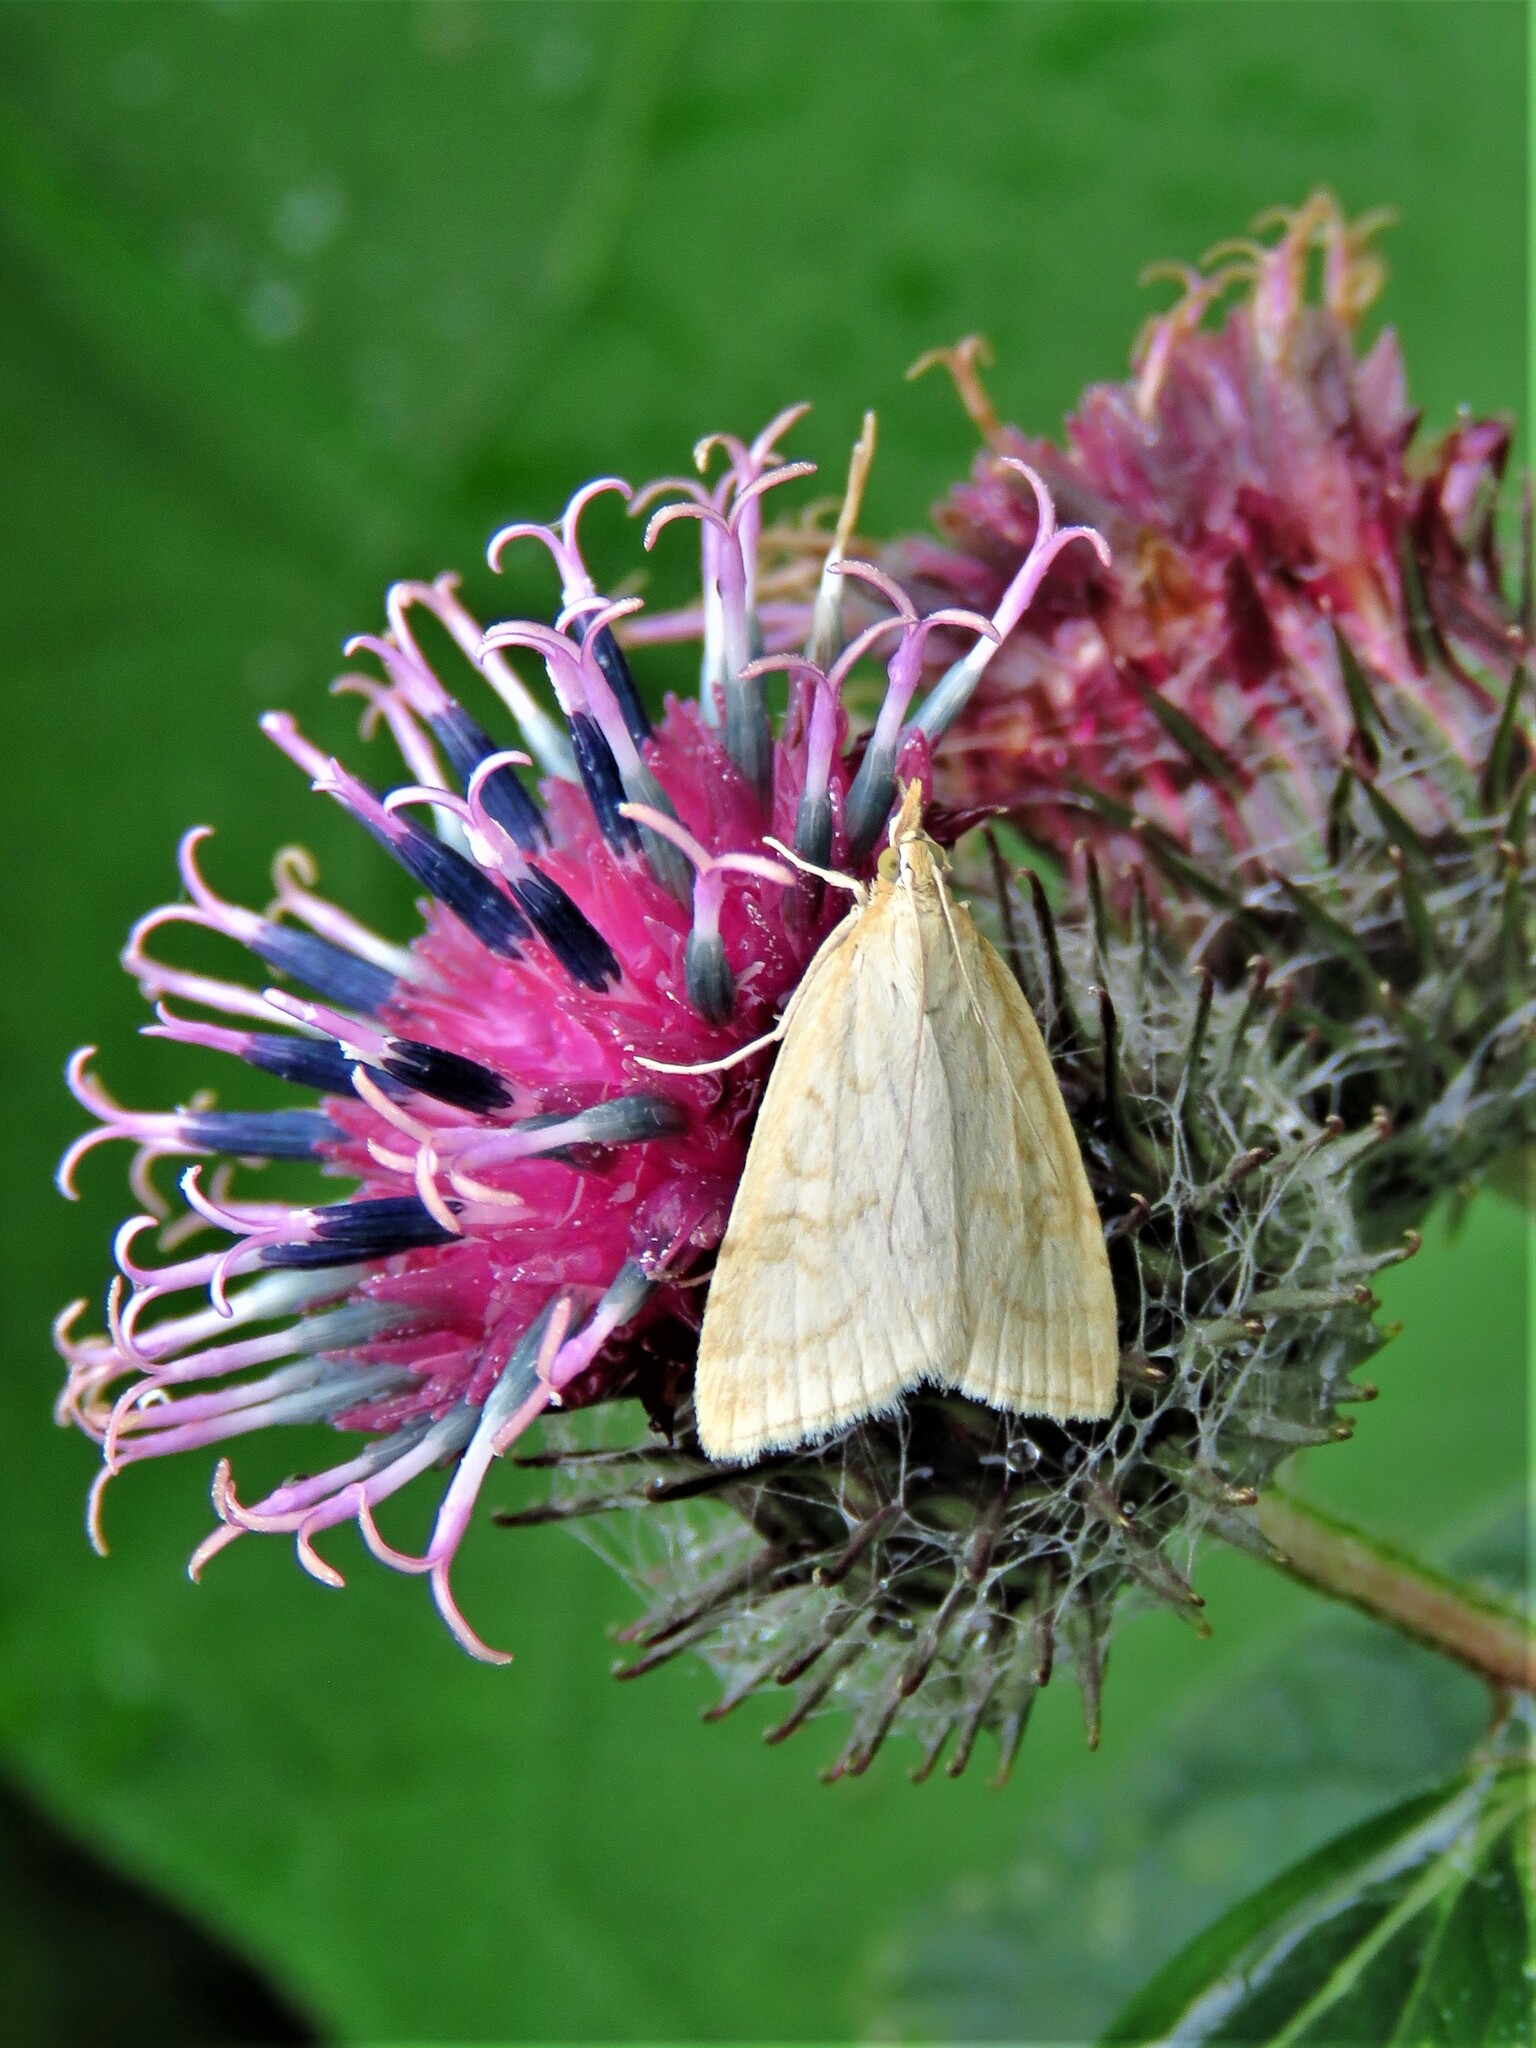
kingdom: Animalia
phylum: Arthropoda
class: Insecta
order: Lepidoptera
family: Crambidae
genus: Udea
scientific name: Udea lutealis
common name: Pale straw pearl
